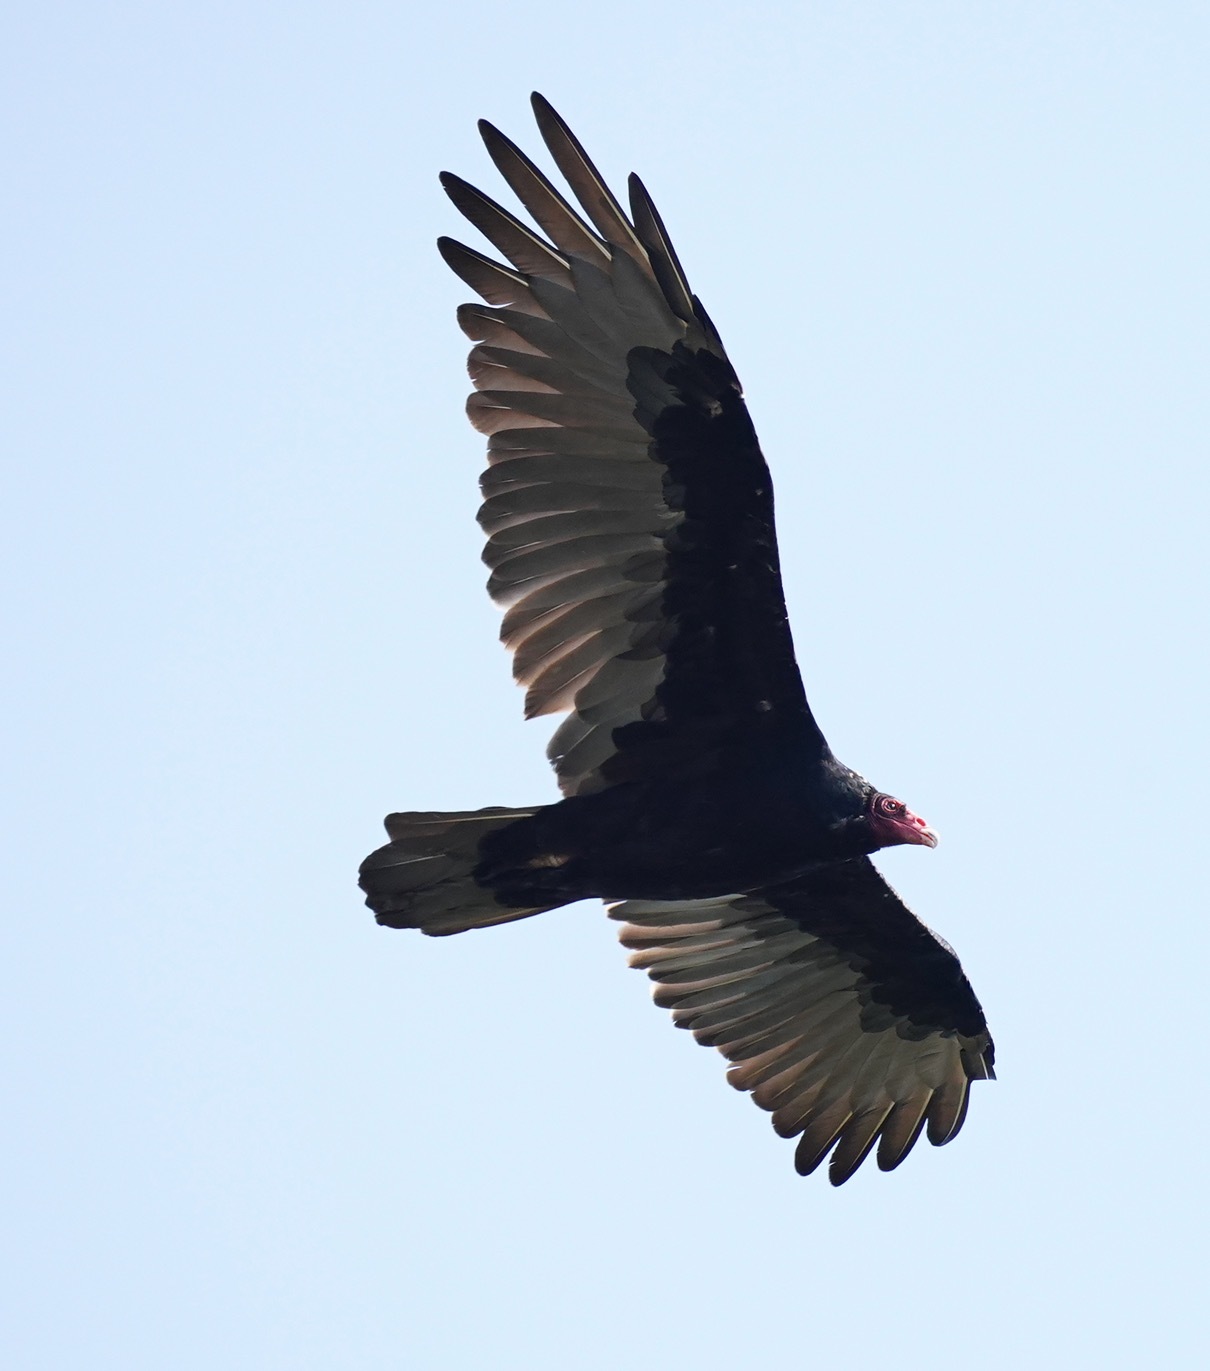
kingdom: Animalia
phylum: Chordata
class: Aves
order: Accipitriformes
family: Cathartidae
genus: Cathartes
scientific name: Cathartes aura
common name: Turkey vulture
